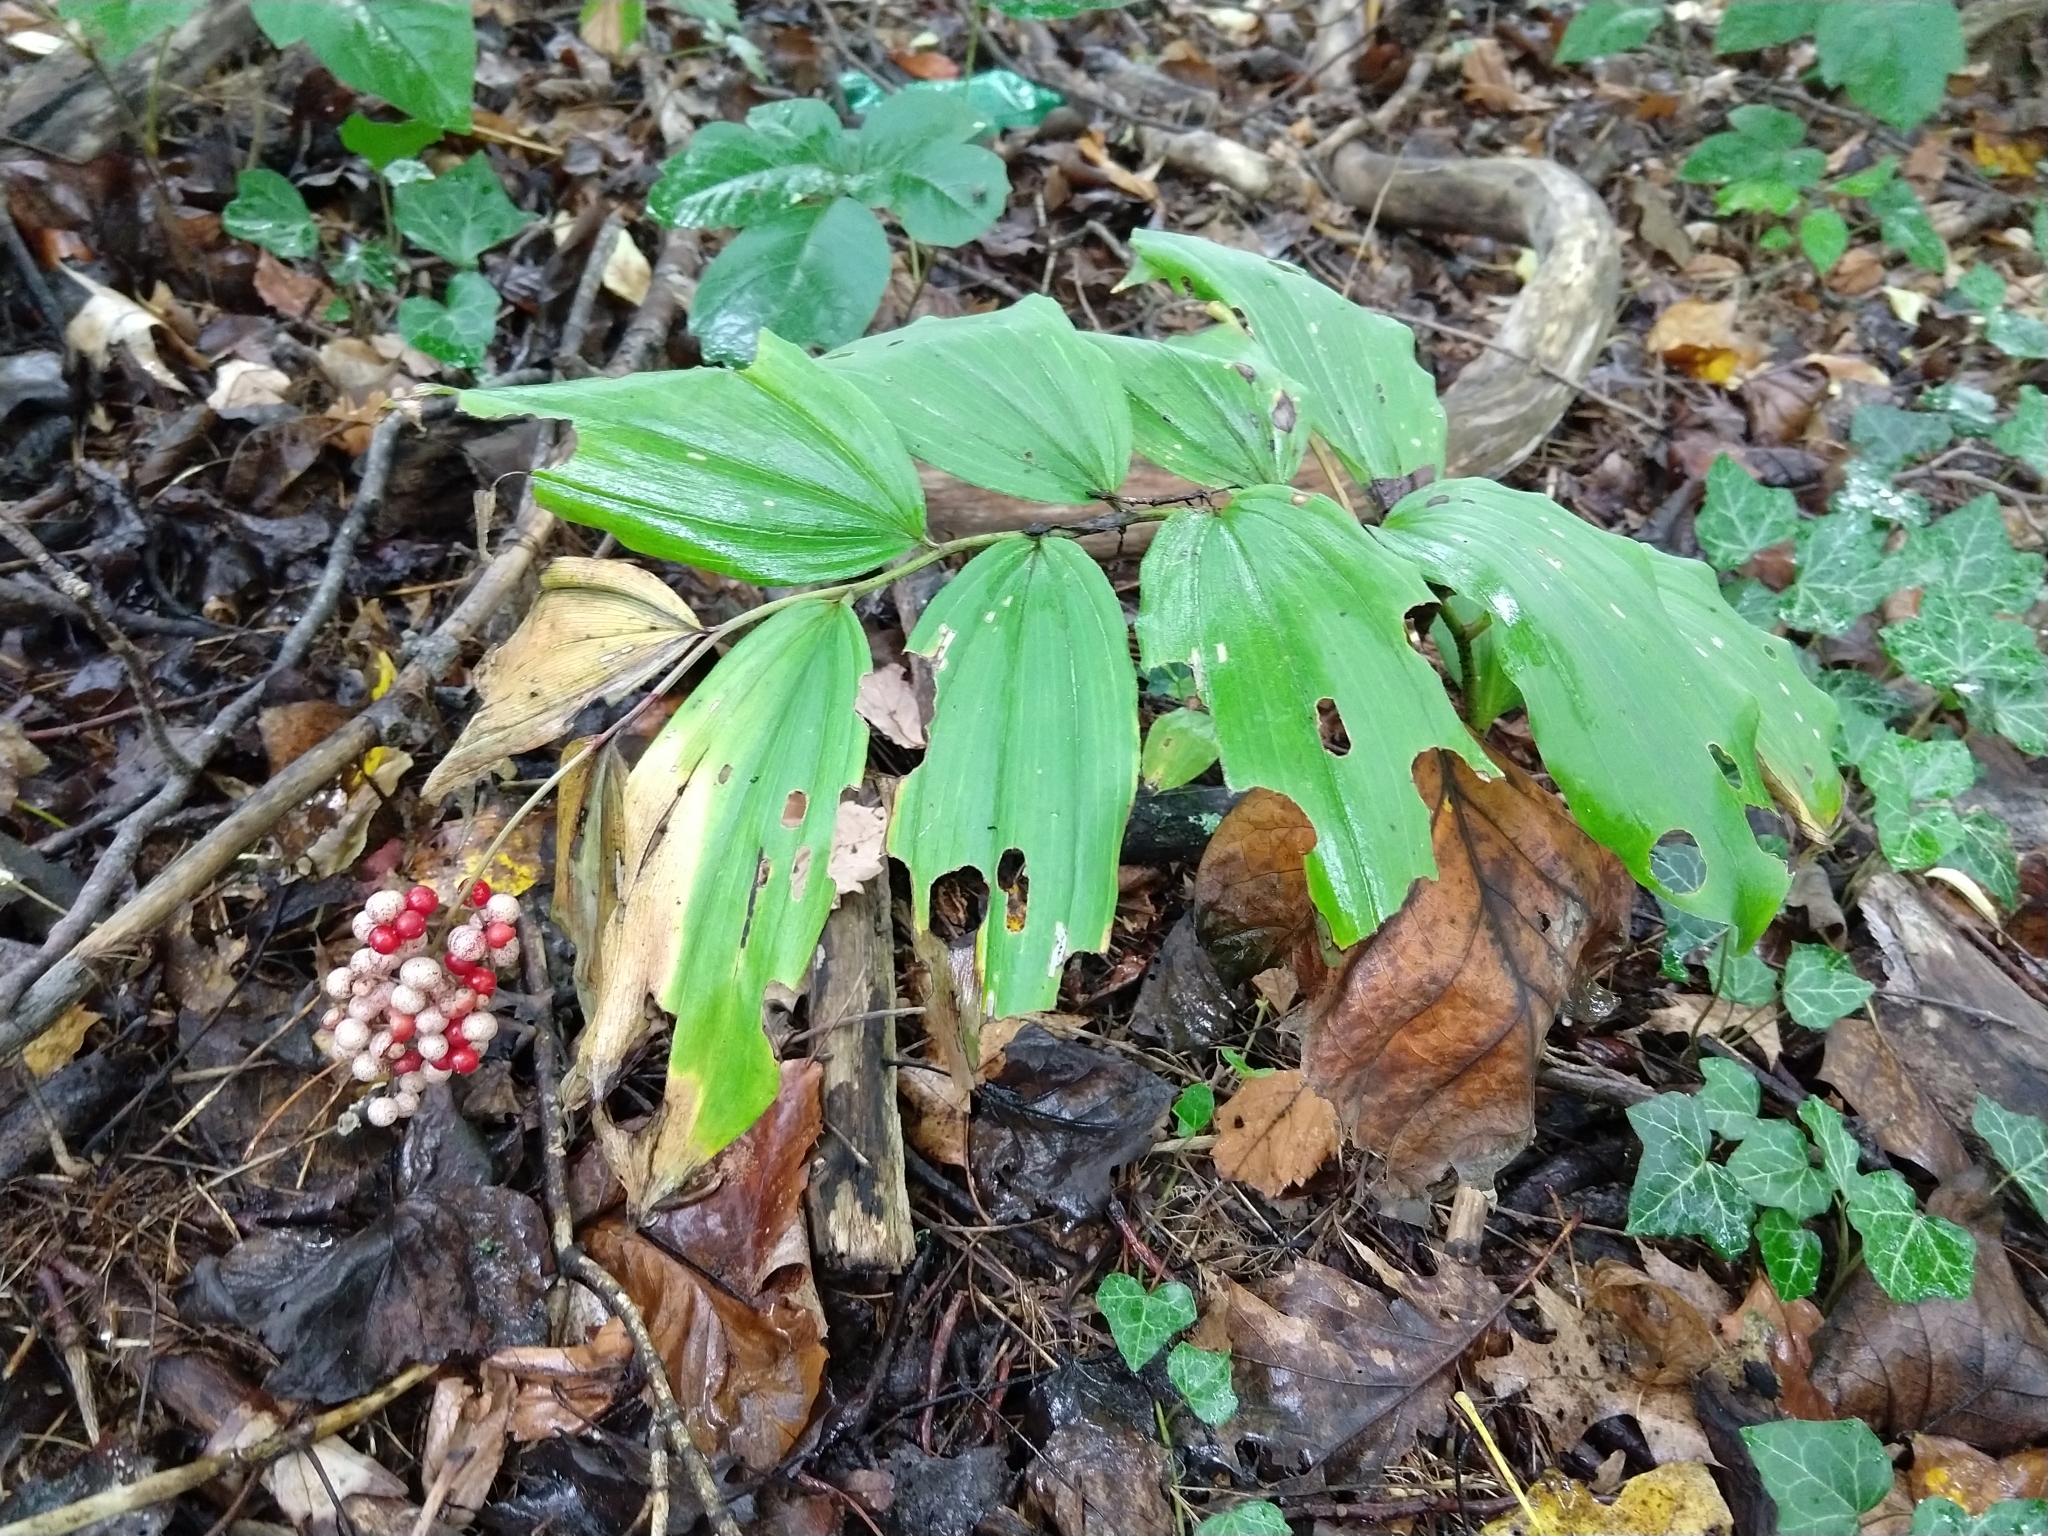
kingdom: Plantae
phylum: Tracheophyta
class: Liliopsida
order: Asparagales
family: Asparagaceae
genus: Maianthemum
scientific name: Maianthemum racemosum
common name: False spikenard
